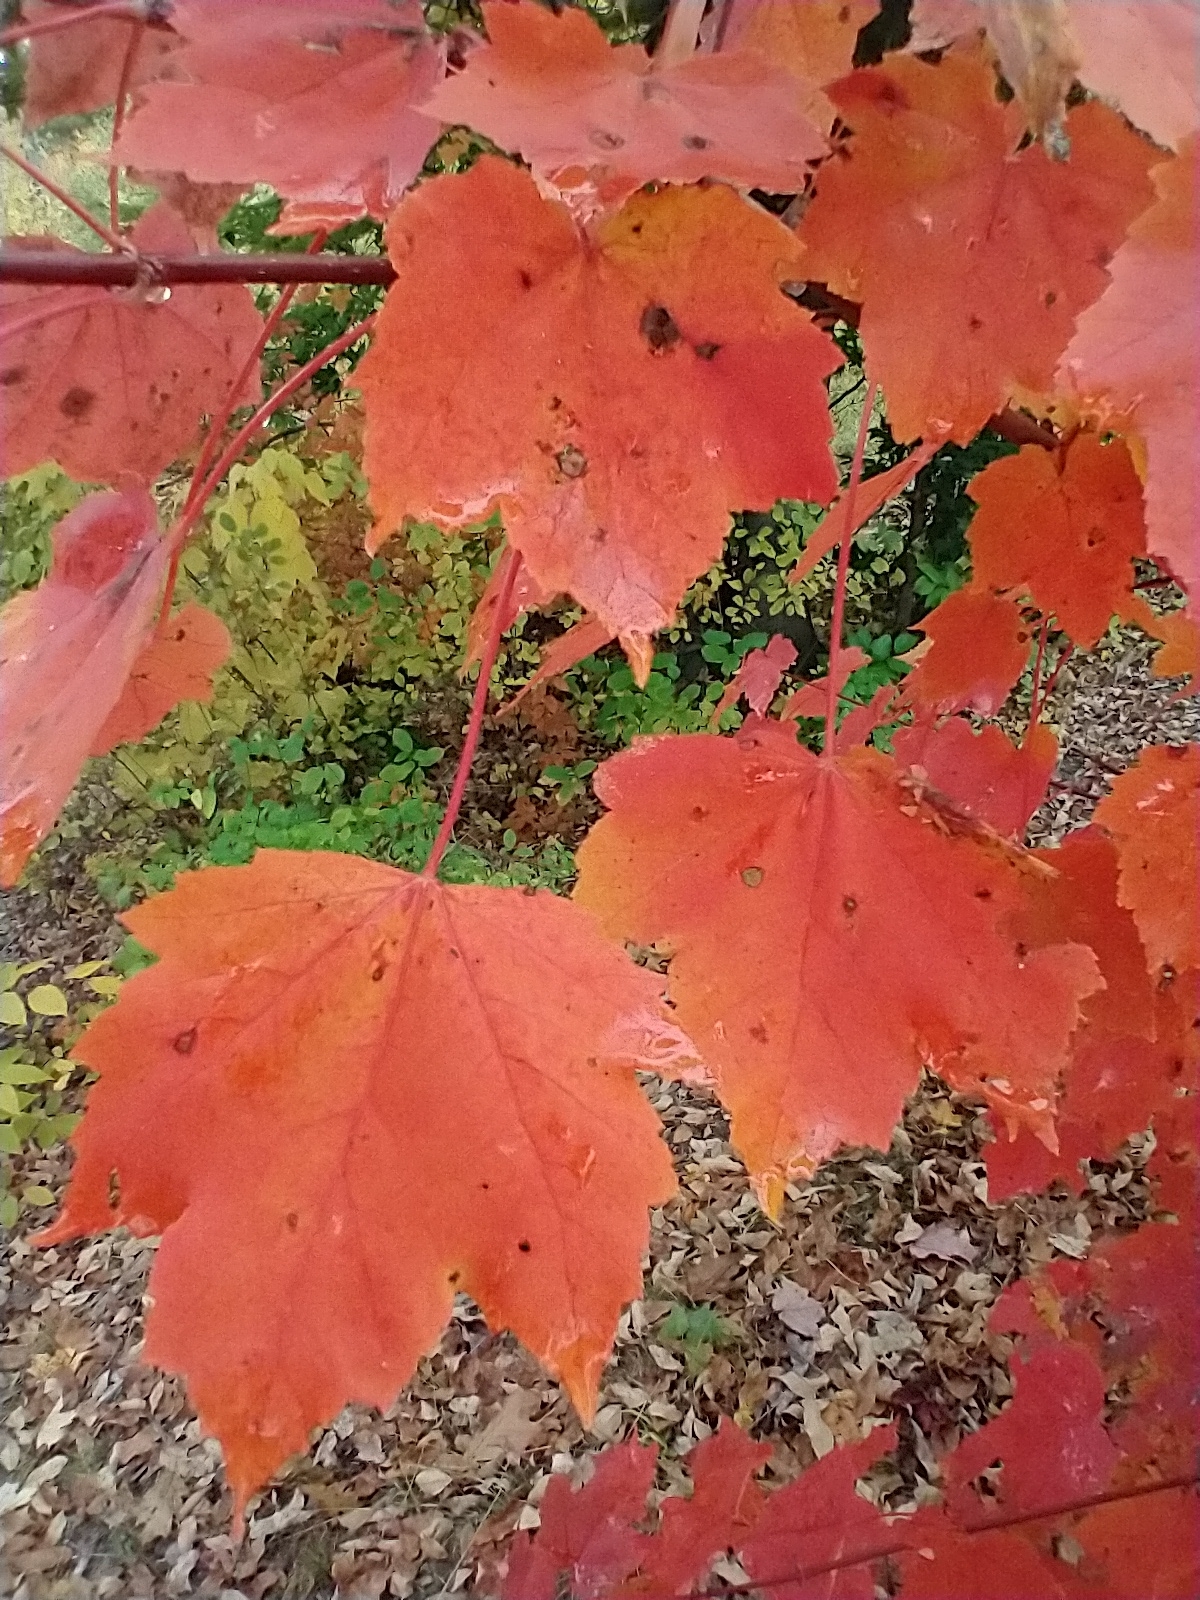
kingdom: Plantae
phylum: Tracheophyta
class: Magnoliopsida
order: Sapindales
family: Sapindaceae
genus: Acer
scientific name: Acer rubrum
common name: Red maple
